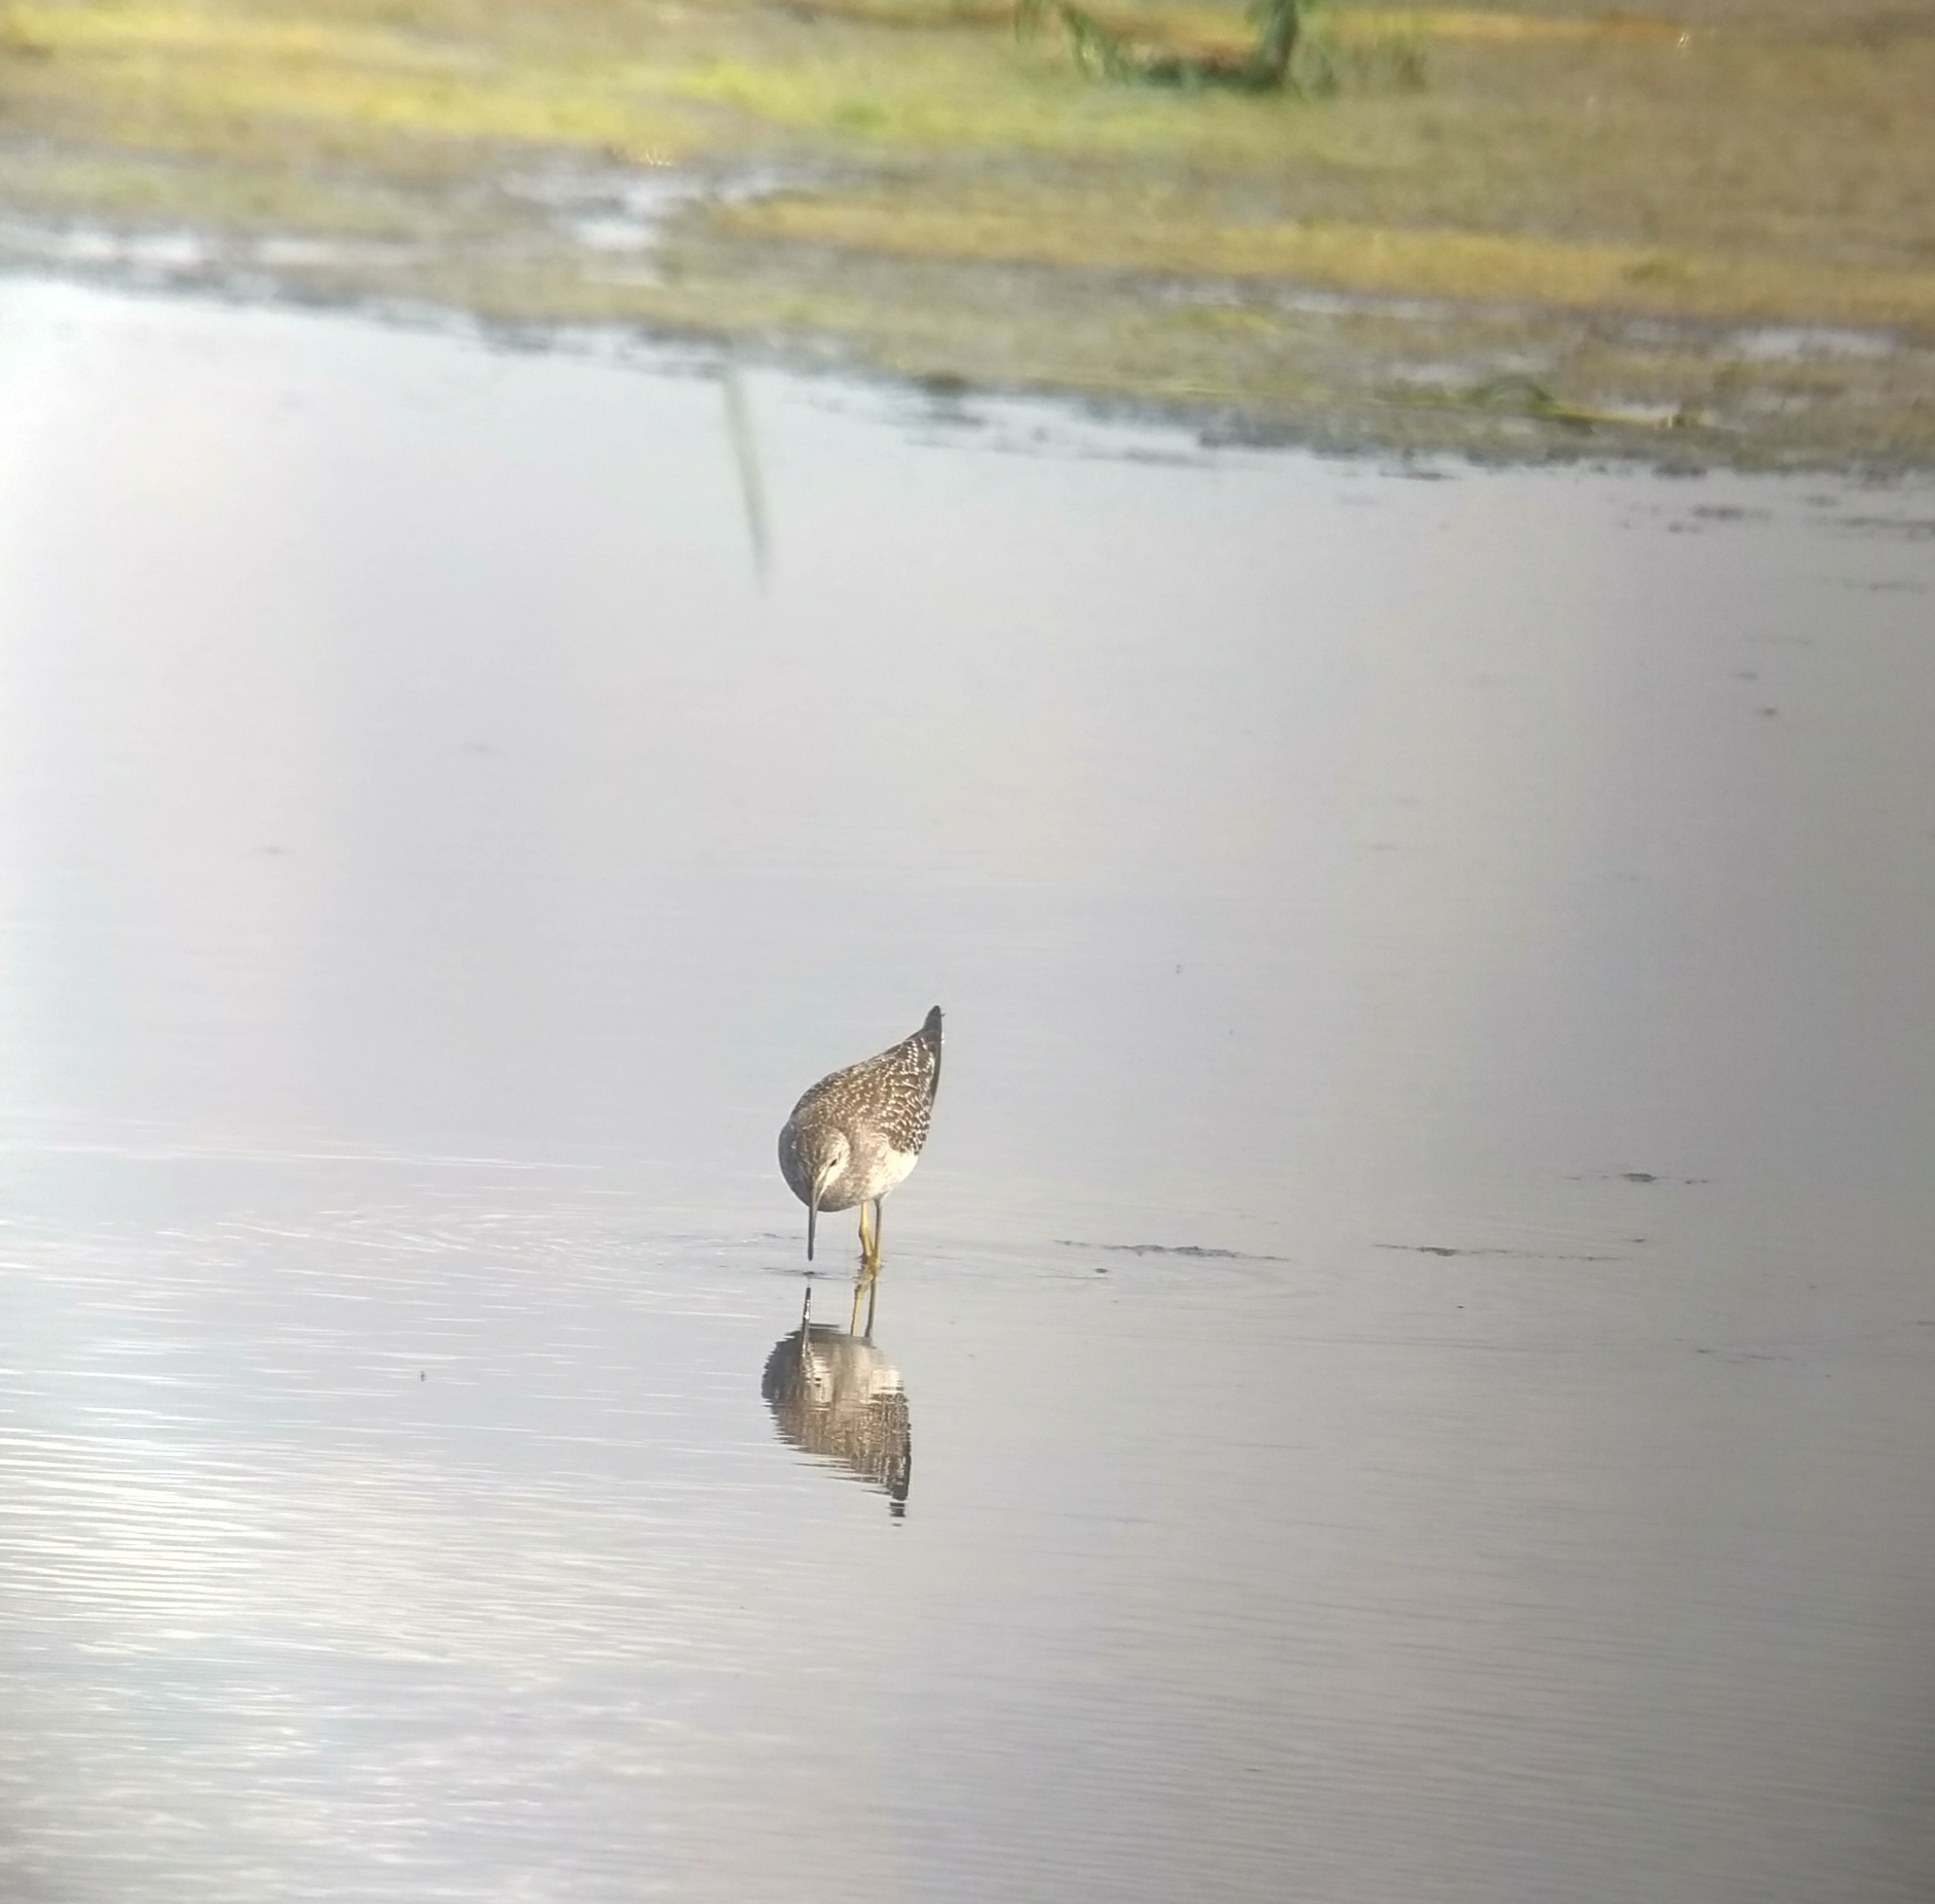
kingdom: Animalia
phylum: Chordata
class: Aves
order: Charadriiformes
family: Scolopacidae
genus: Tringa
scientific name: Tringa melanoleuca
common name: Greater yellowlegs
